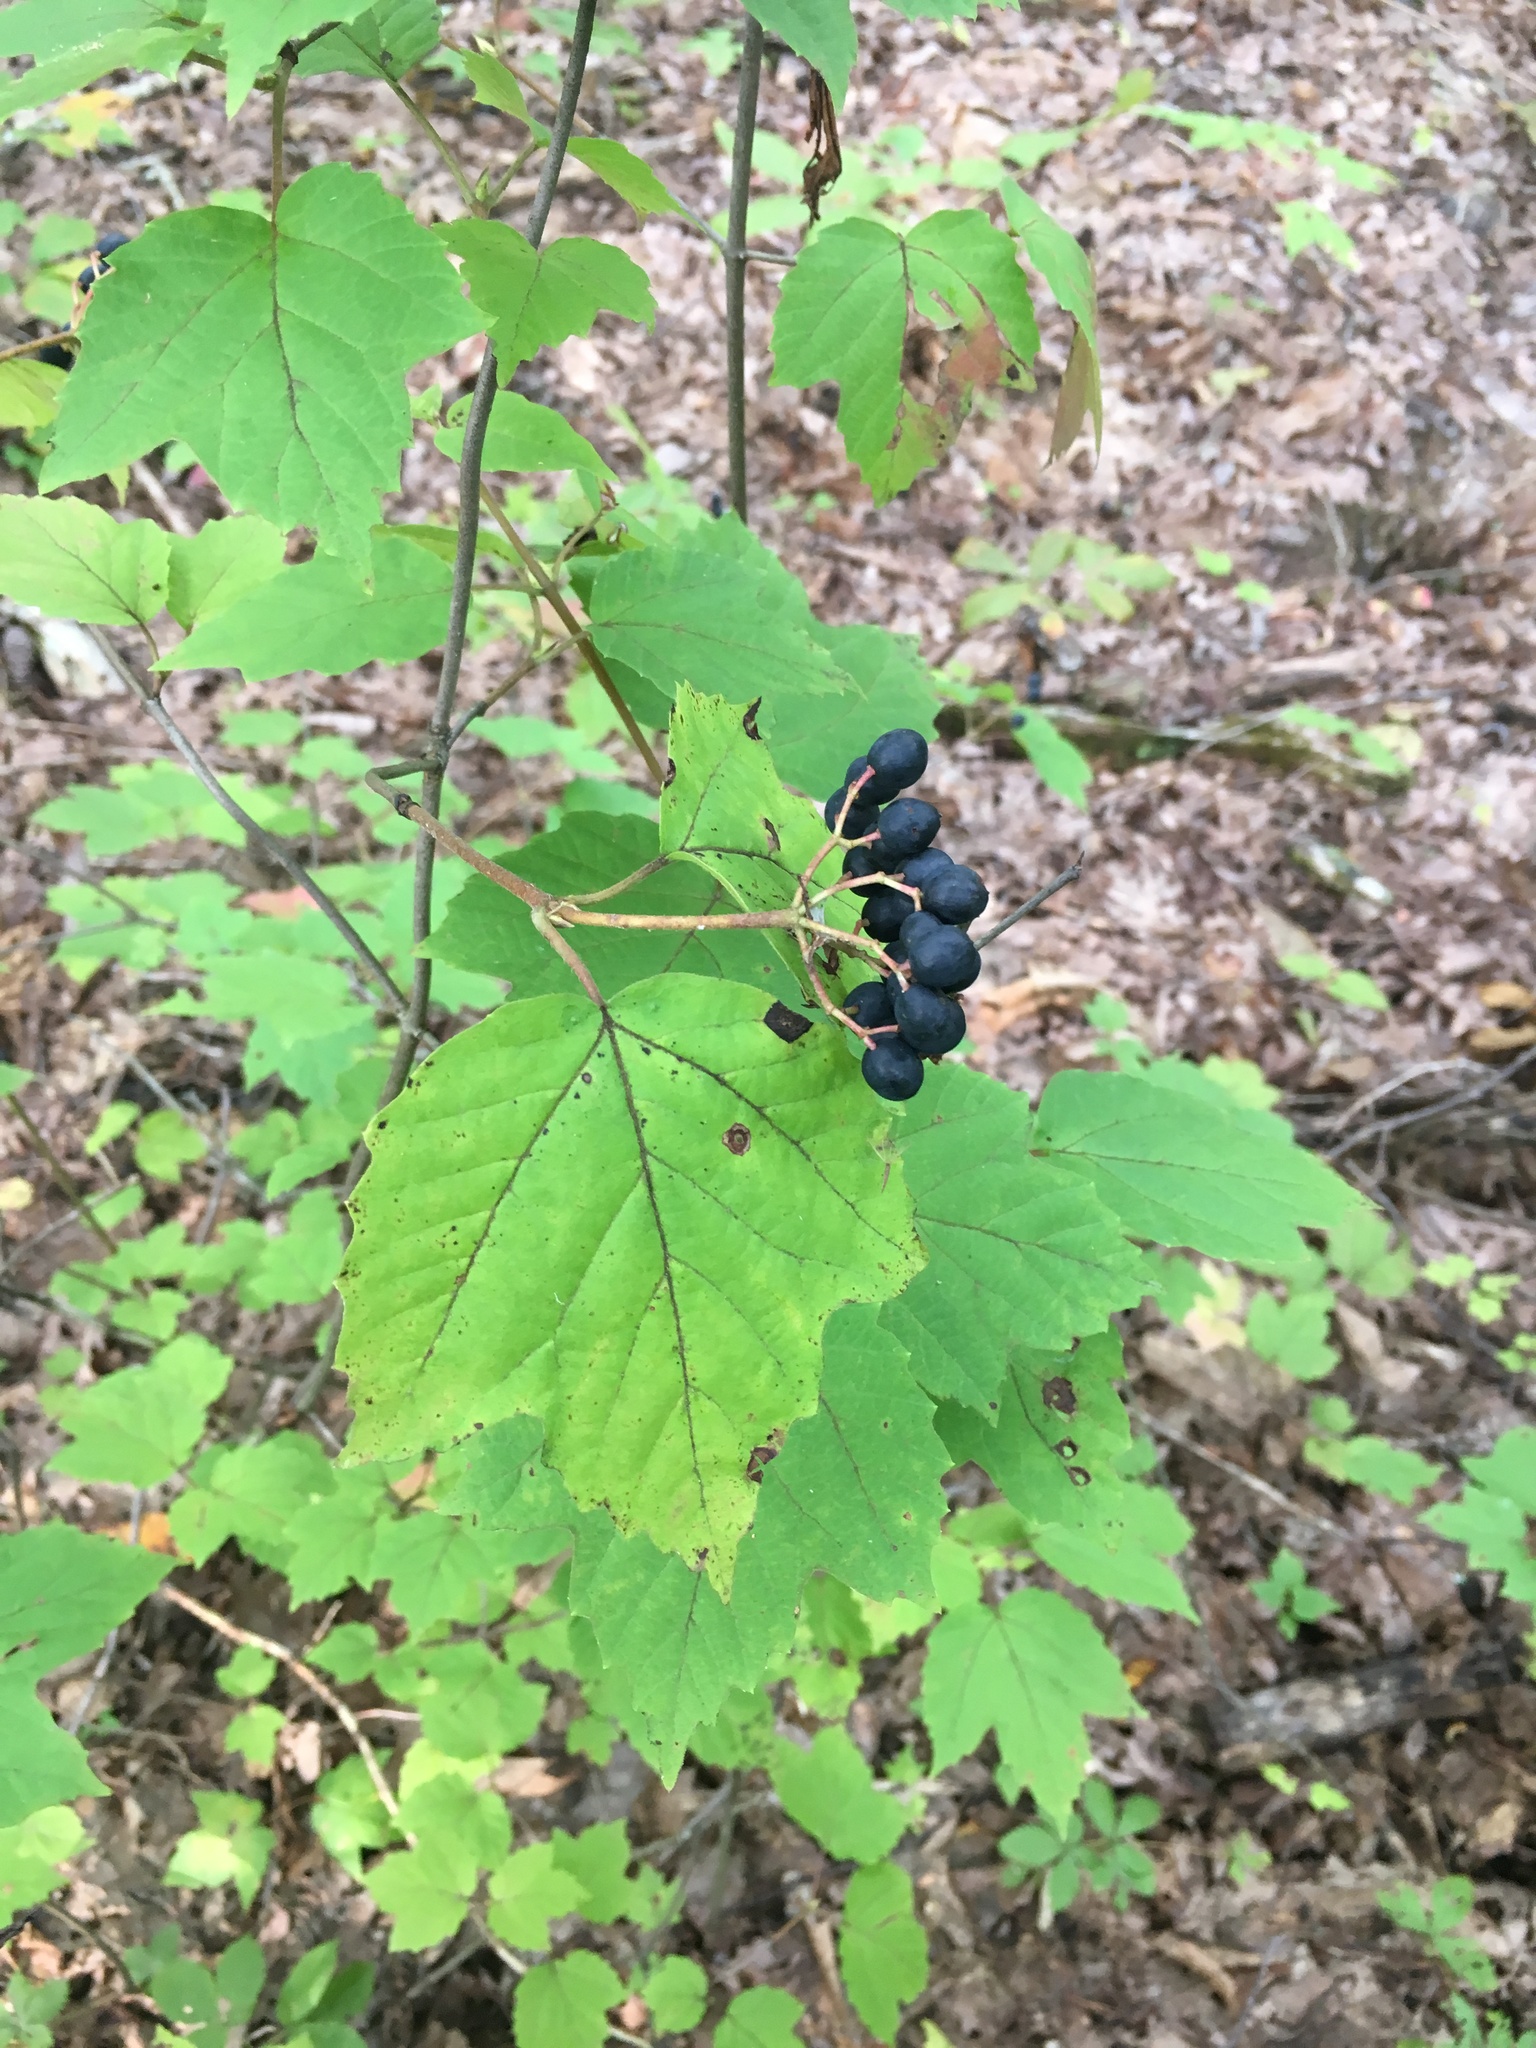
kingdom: Plantae
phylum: Tracheophyta
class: Magnoliopsida
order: Dipsacales
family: Viburnaceae
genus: Viburnum
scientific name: Viburnum acerifolium
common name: Dockmackie
